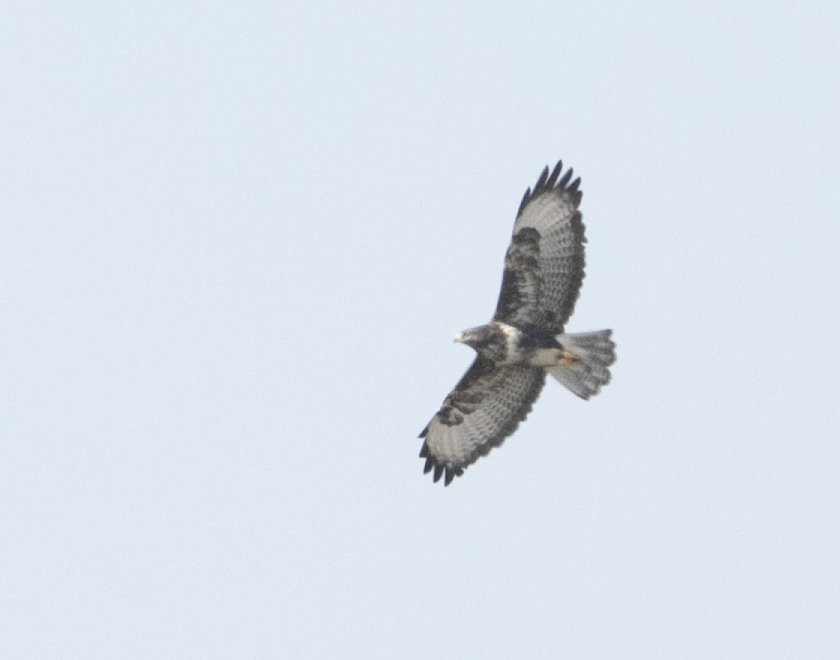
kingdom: Animalia
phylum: Chordata
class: Aves
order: Accipitriformes
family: Accipitridae
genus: Buteo
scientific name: Buteo buteo
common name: Common buzzard
